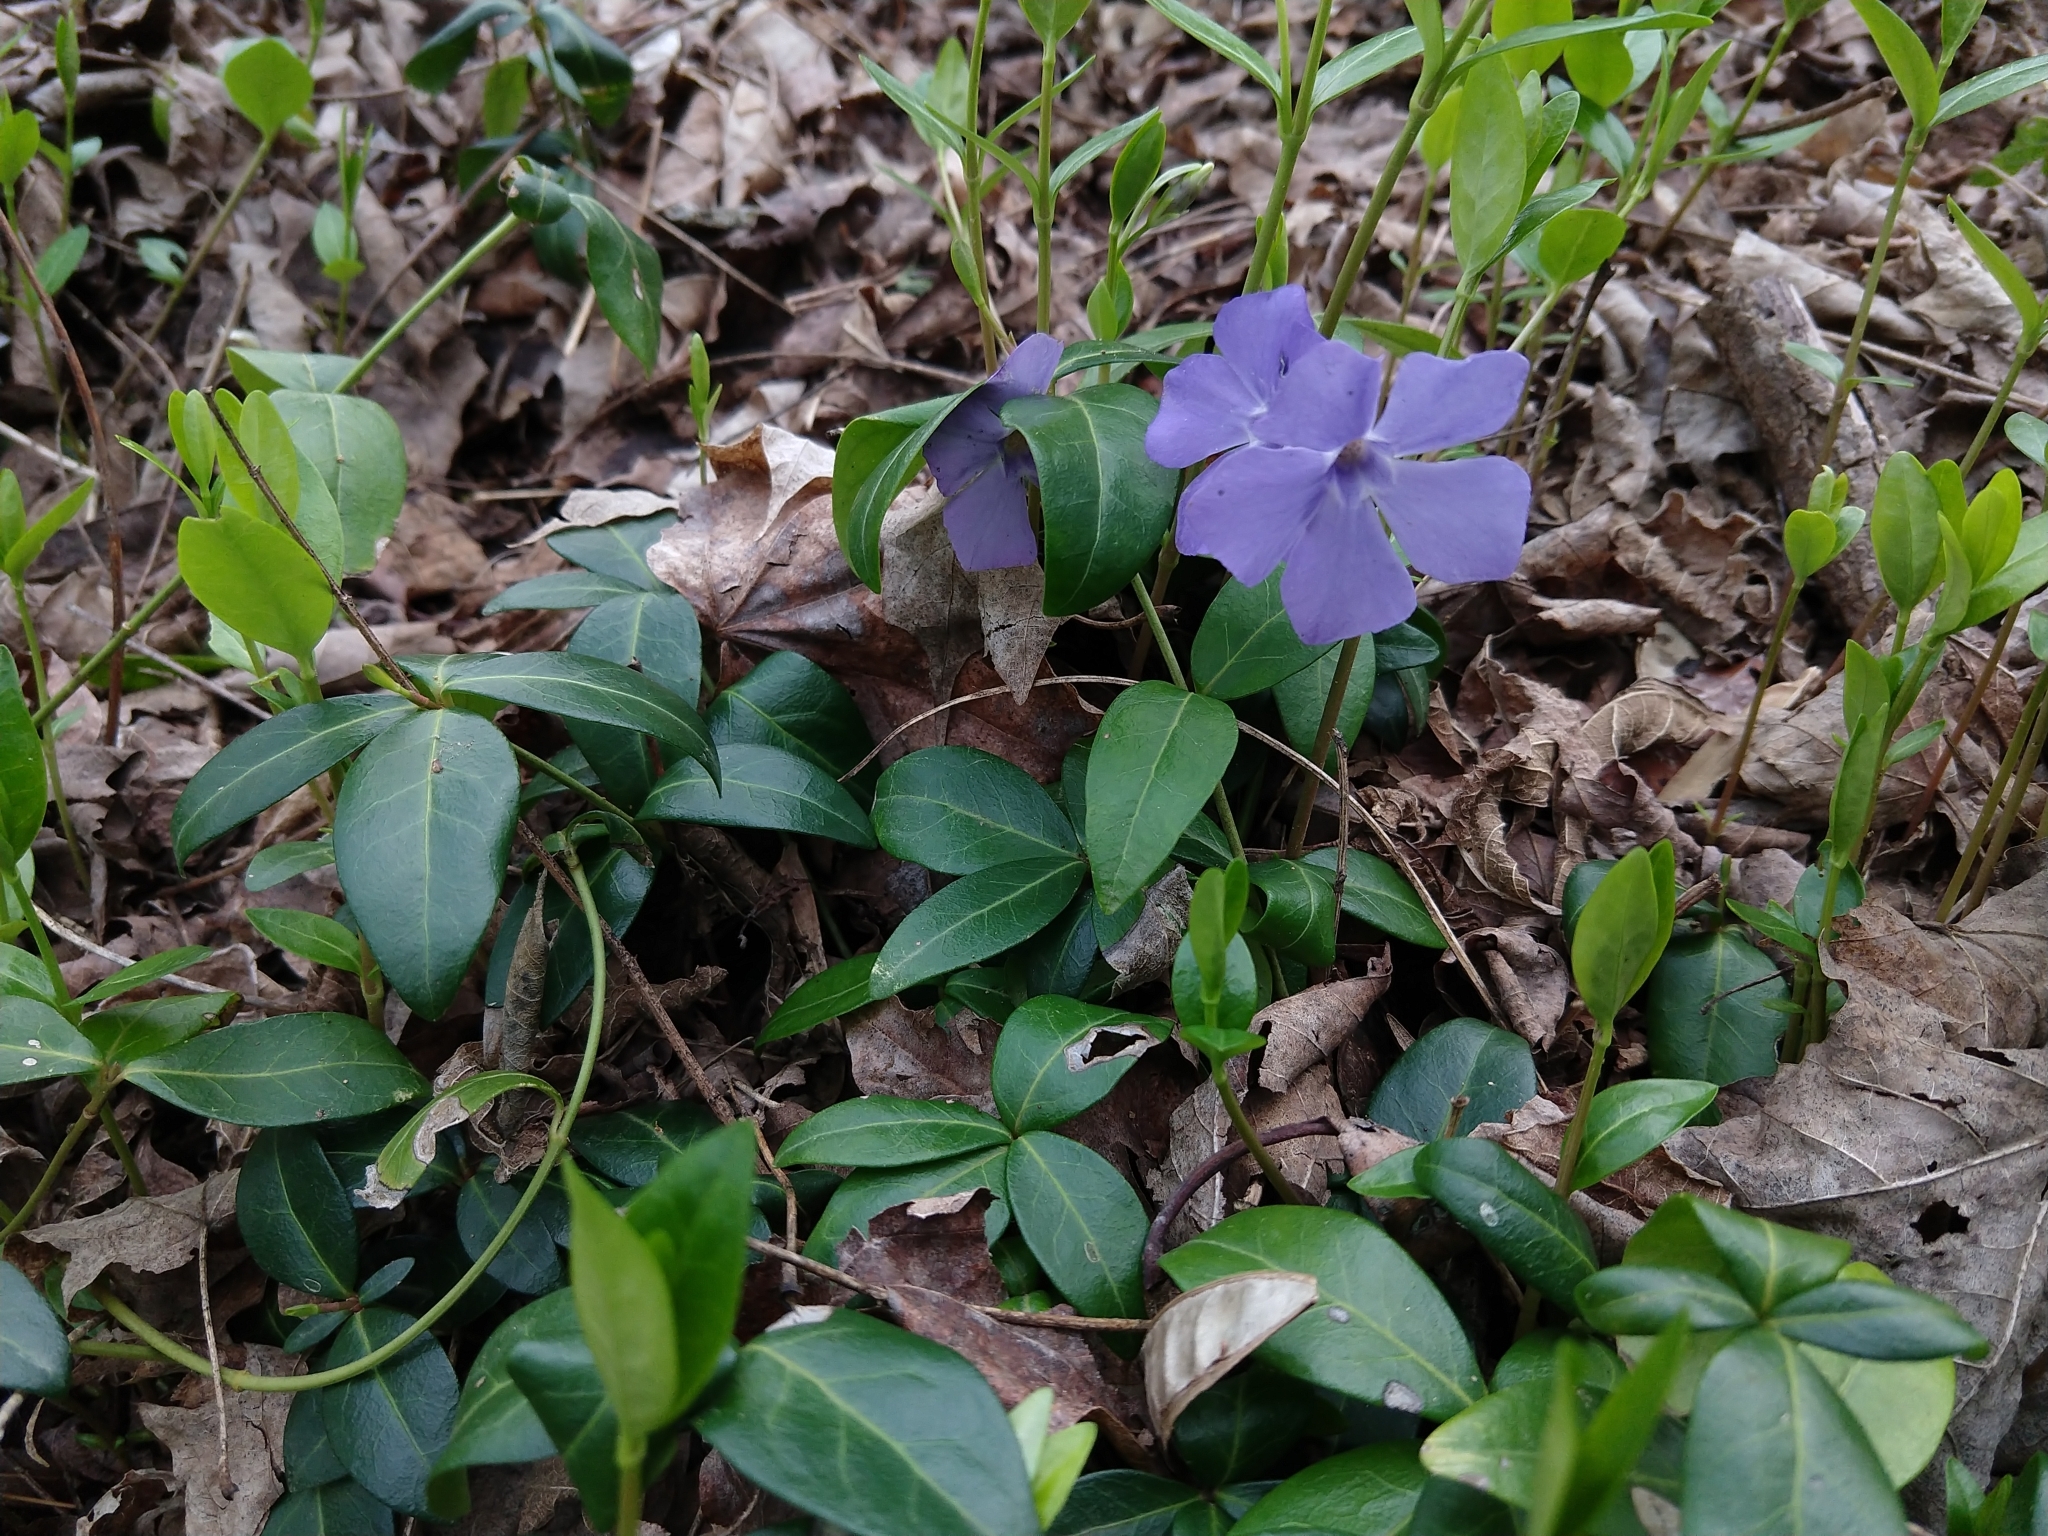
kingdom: Plantae
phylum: Tracheophyta
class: Magnoliopsida
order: Gentianales
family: Apocynaceae
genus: Vinca
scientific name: Vinca minor
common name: Lesser periwinkle
